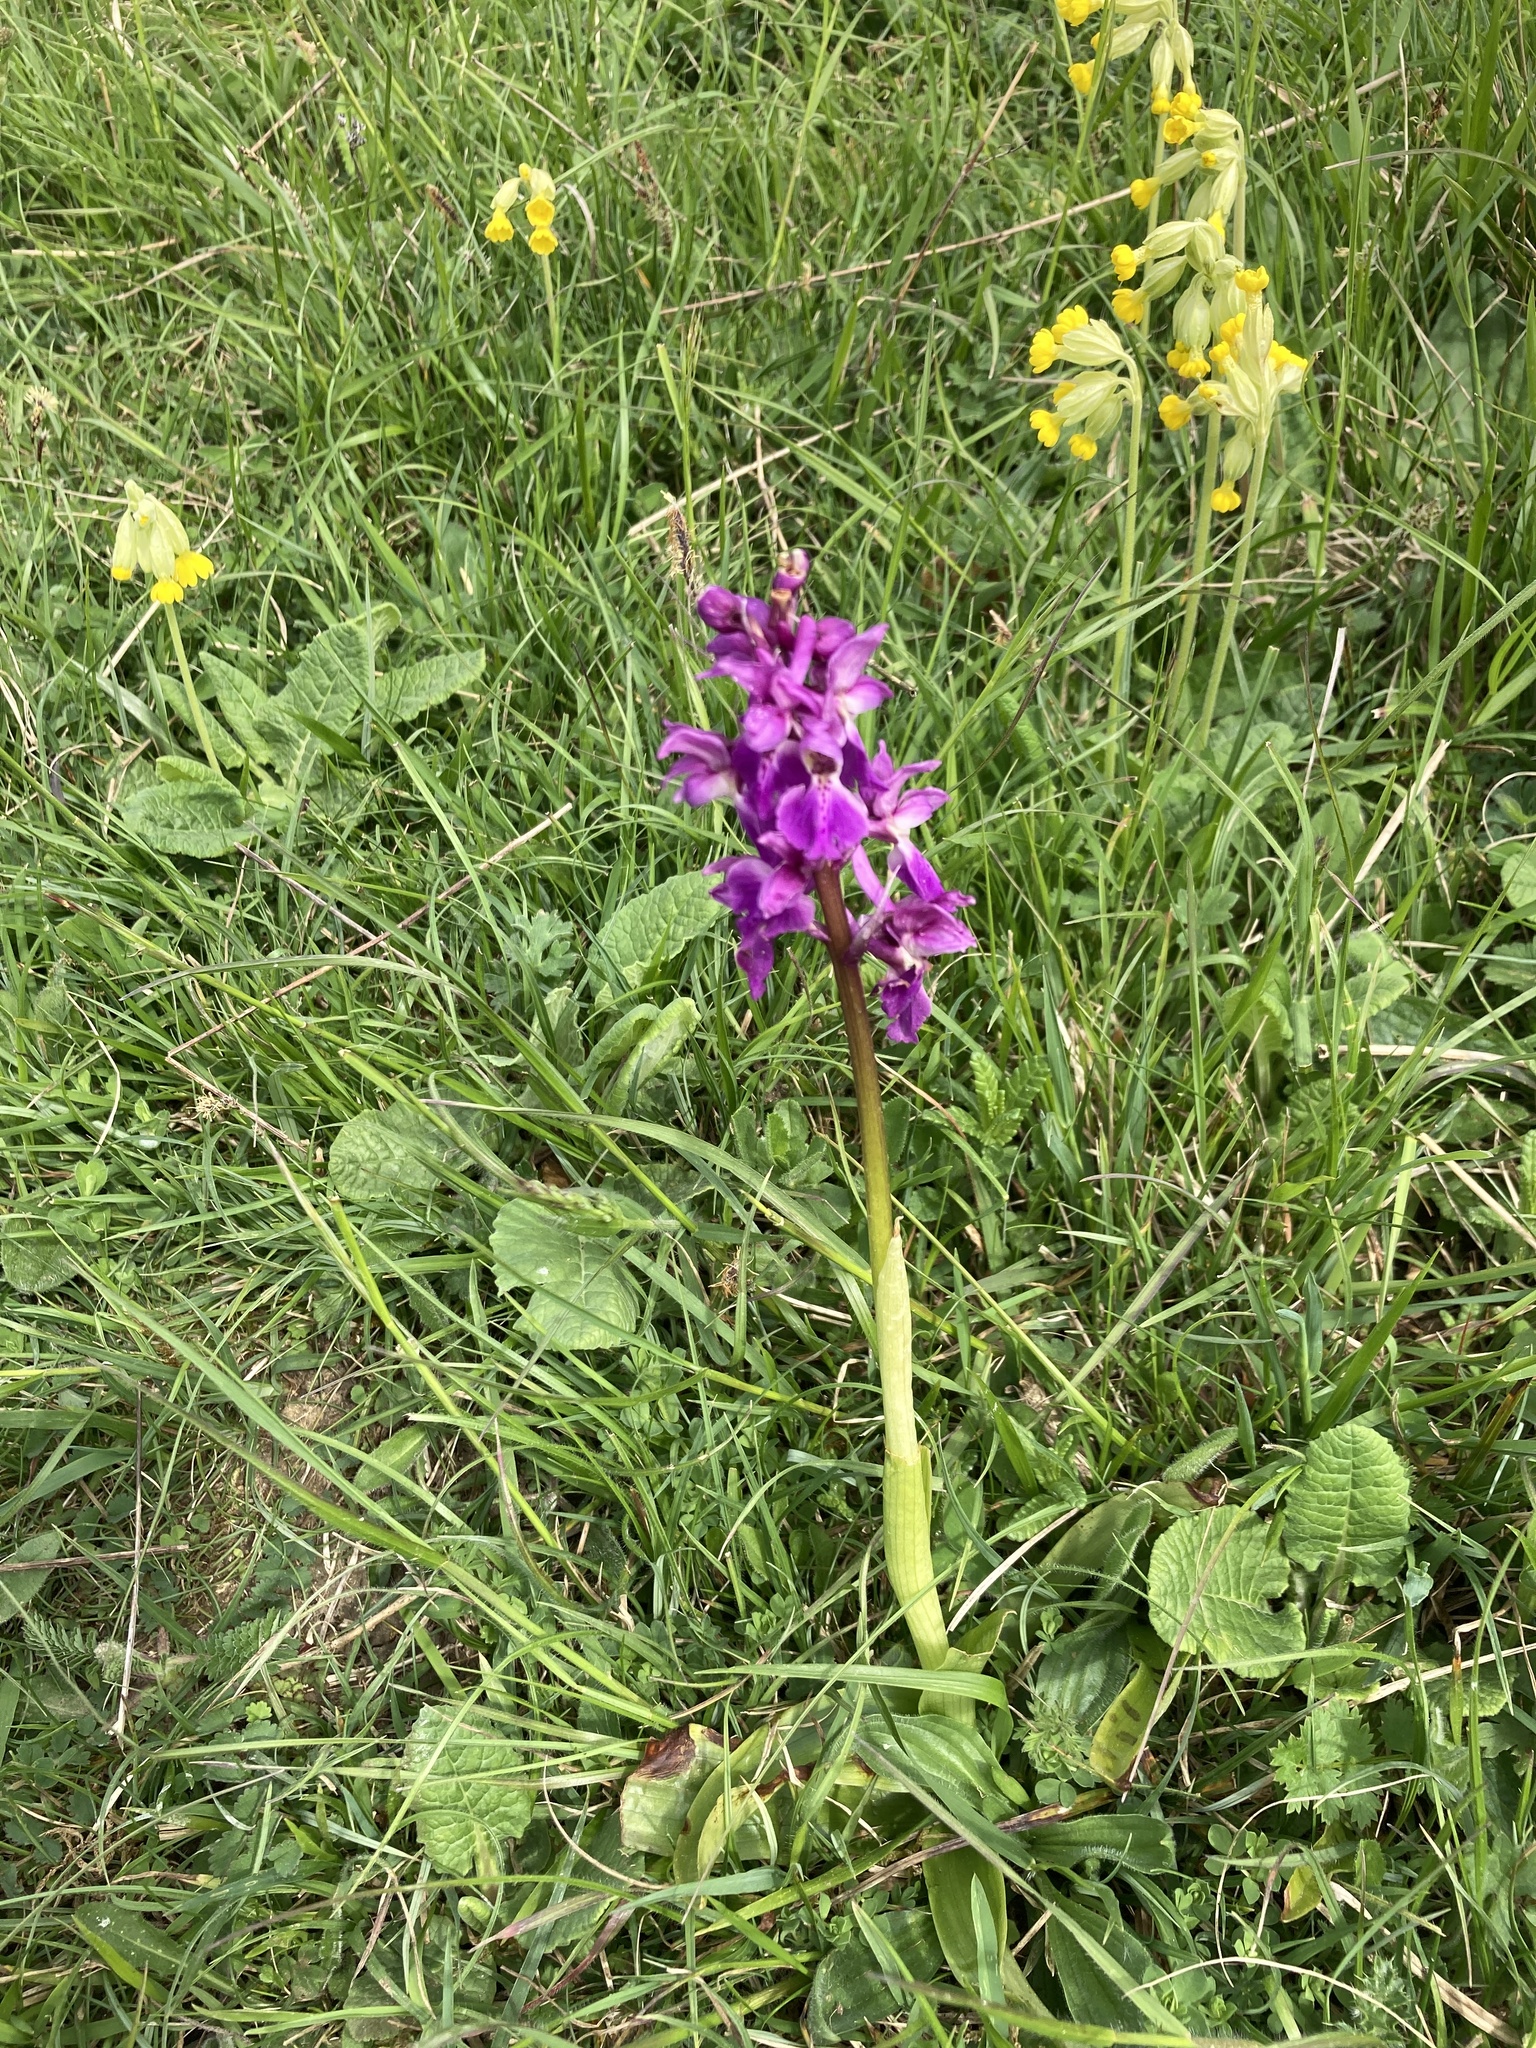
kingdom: Plantae
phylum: Tracheophyta
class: Liliopsida
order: Asparagales
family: Orchidaceae
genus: Orchis
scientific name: Orchis mascula
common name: Early-purple orchid
